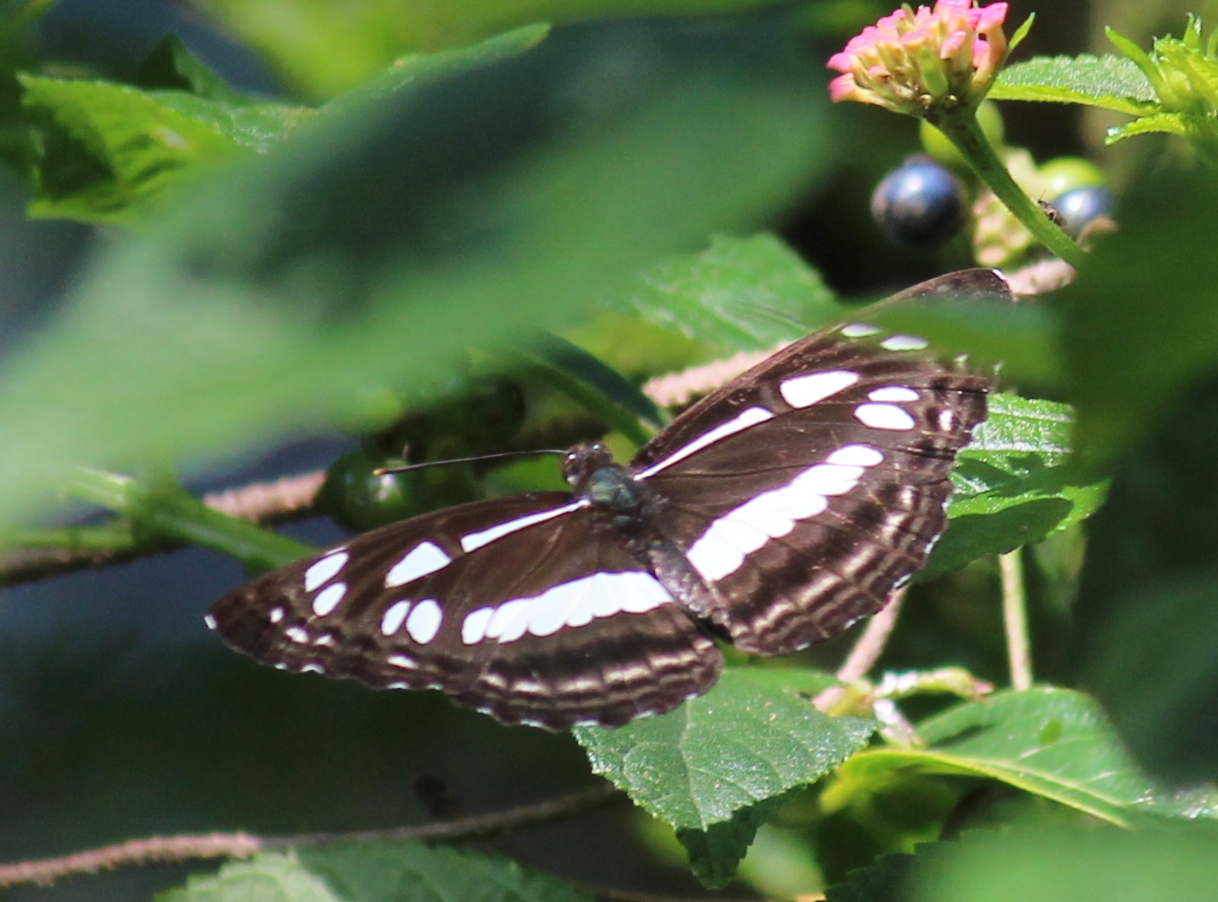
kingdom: Animalia
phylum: Arthropoda
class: Insecta
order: Lepidoptera
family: Nymphalidae
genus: Neptis
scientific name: Neptis jumbah
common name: Chestnut-streaked sailer
